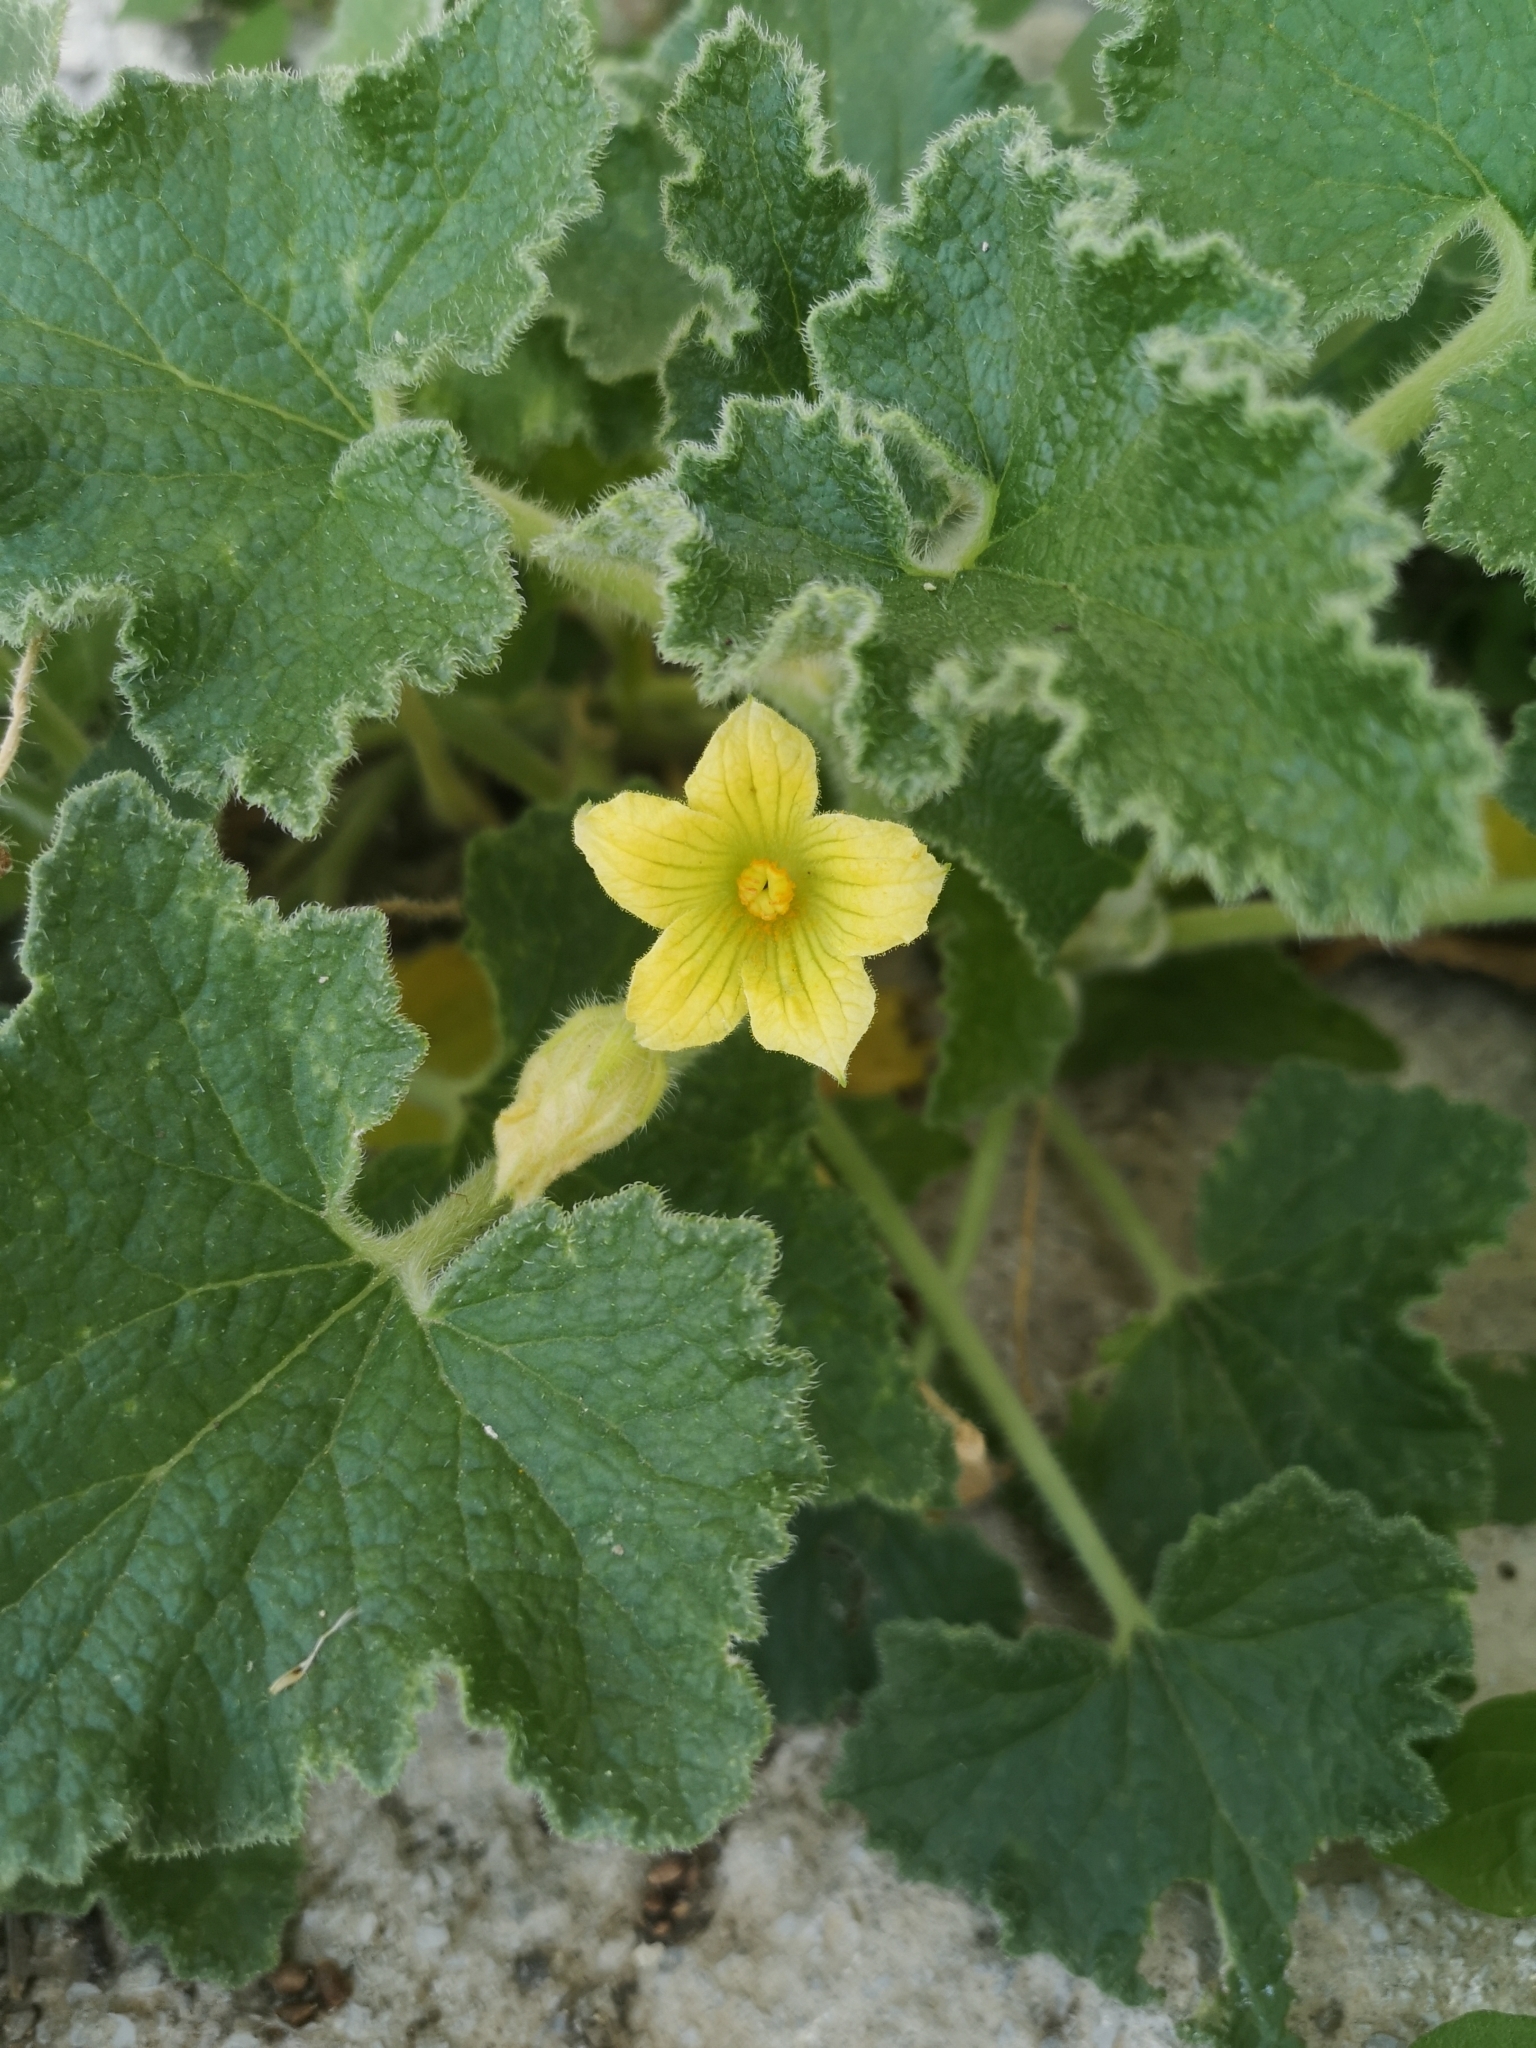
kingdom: Plantae
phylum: Tracheophyta
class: Magnoliopsida
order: Cucurbitales
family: Cucurbitaceae
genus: Ecballium
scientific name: Ecballium elaterium
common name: Squirting cucumber
